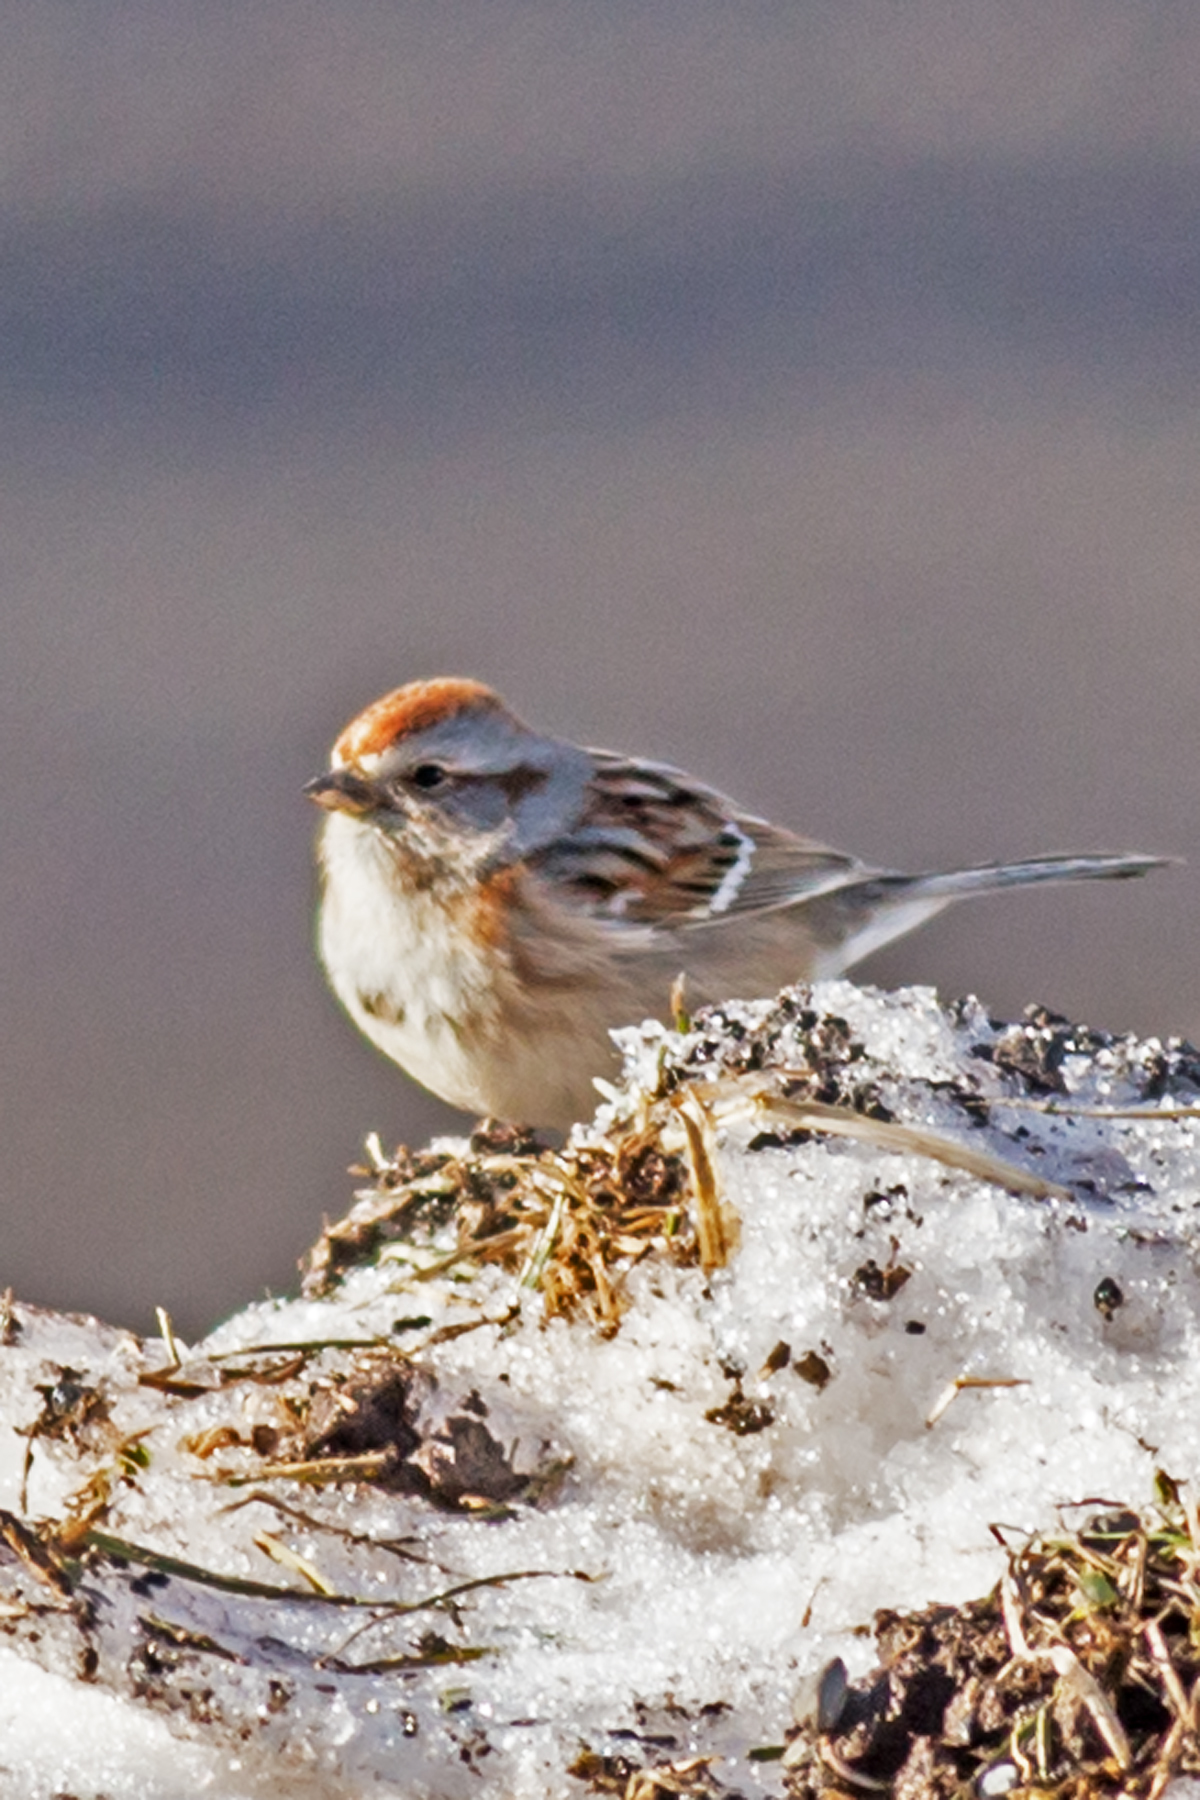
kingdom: Animalia
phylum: Chordata
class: Aves
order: Passeriformes
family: Passerellidae
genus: Spizelloides
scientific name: Spizelloides arborea
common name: American tree sparrow
